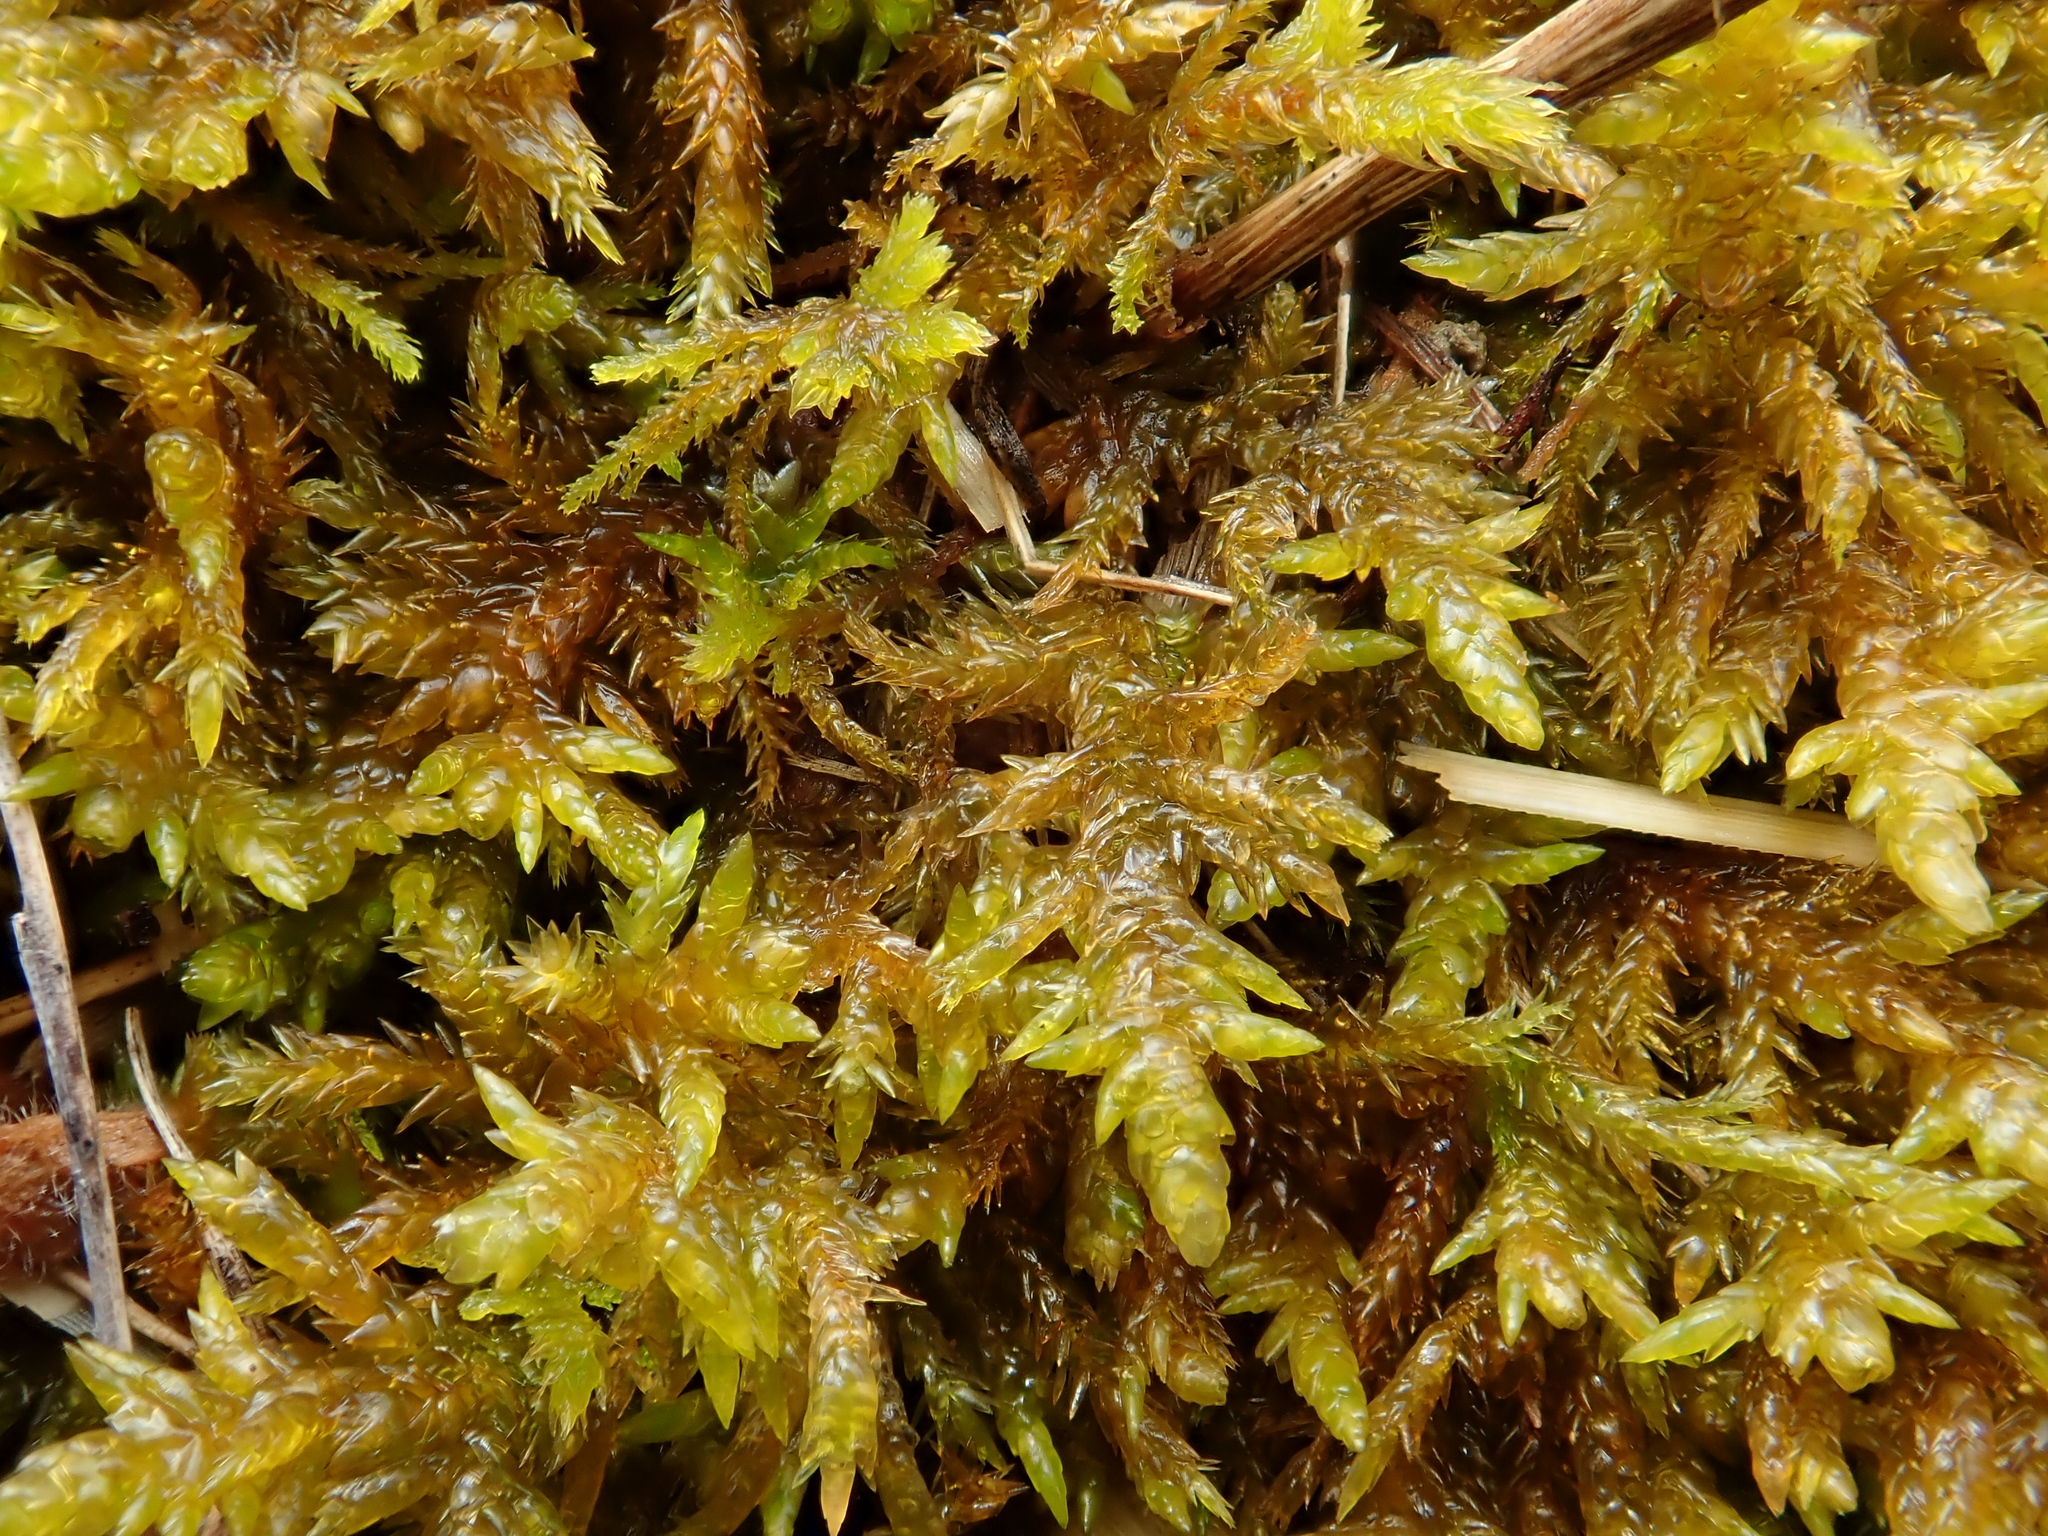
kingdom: Plantae
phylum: Bryophyta
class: Bryopsida
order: Hypnales
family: Entodontaceae
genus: Entodon
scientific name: Entodon concinnus
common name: Montagne's cylinder-moss
